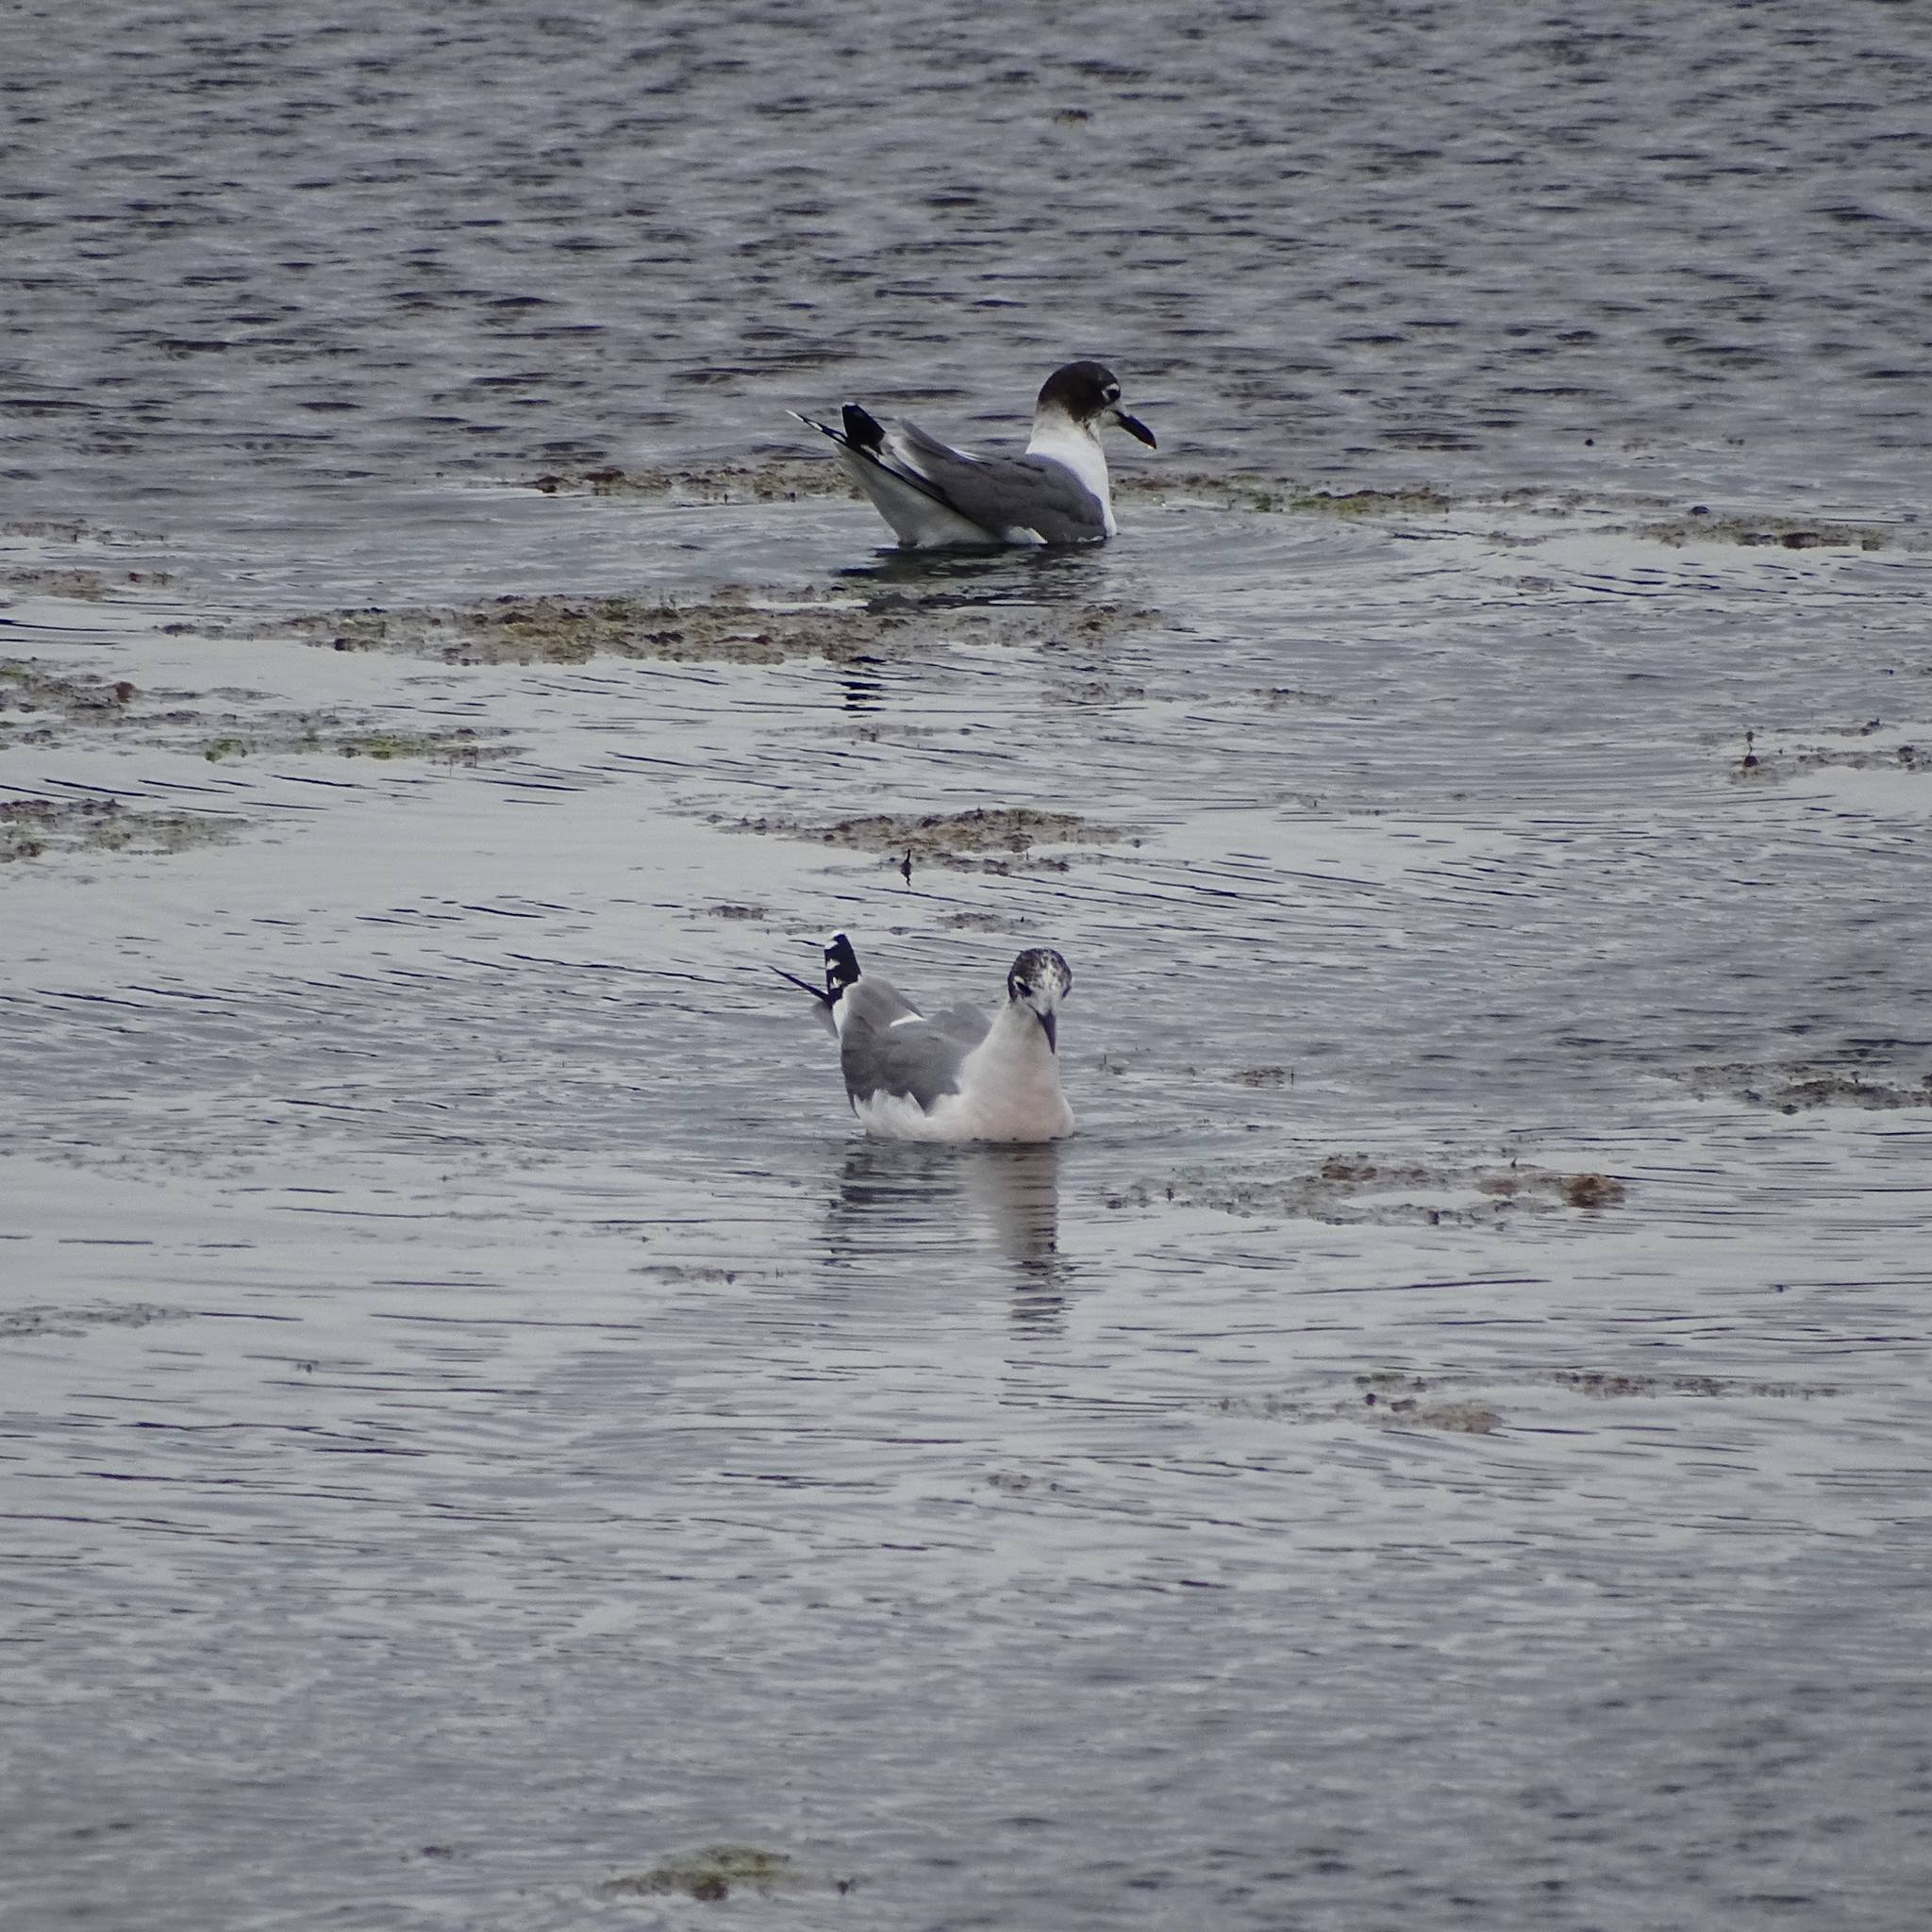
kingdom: Animalia
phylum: Chordata
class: Aves
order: Charadriiformes
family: Laridae
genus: Leucophaeus
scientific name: Leucophaeus pipixcan
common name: Franklin's gull
